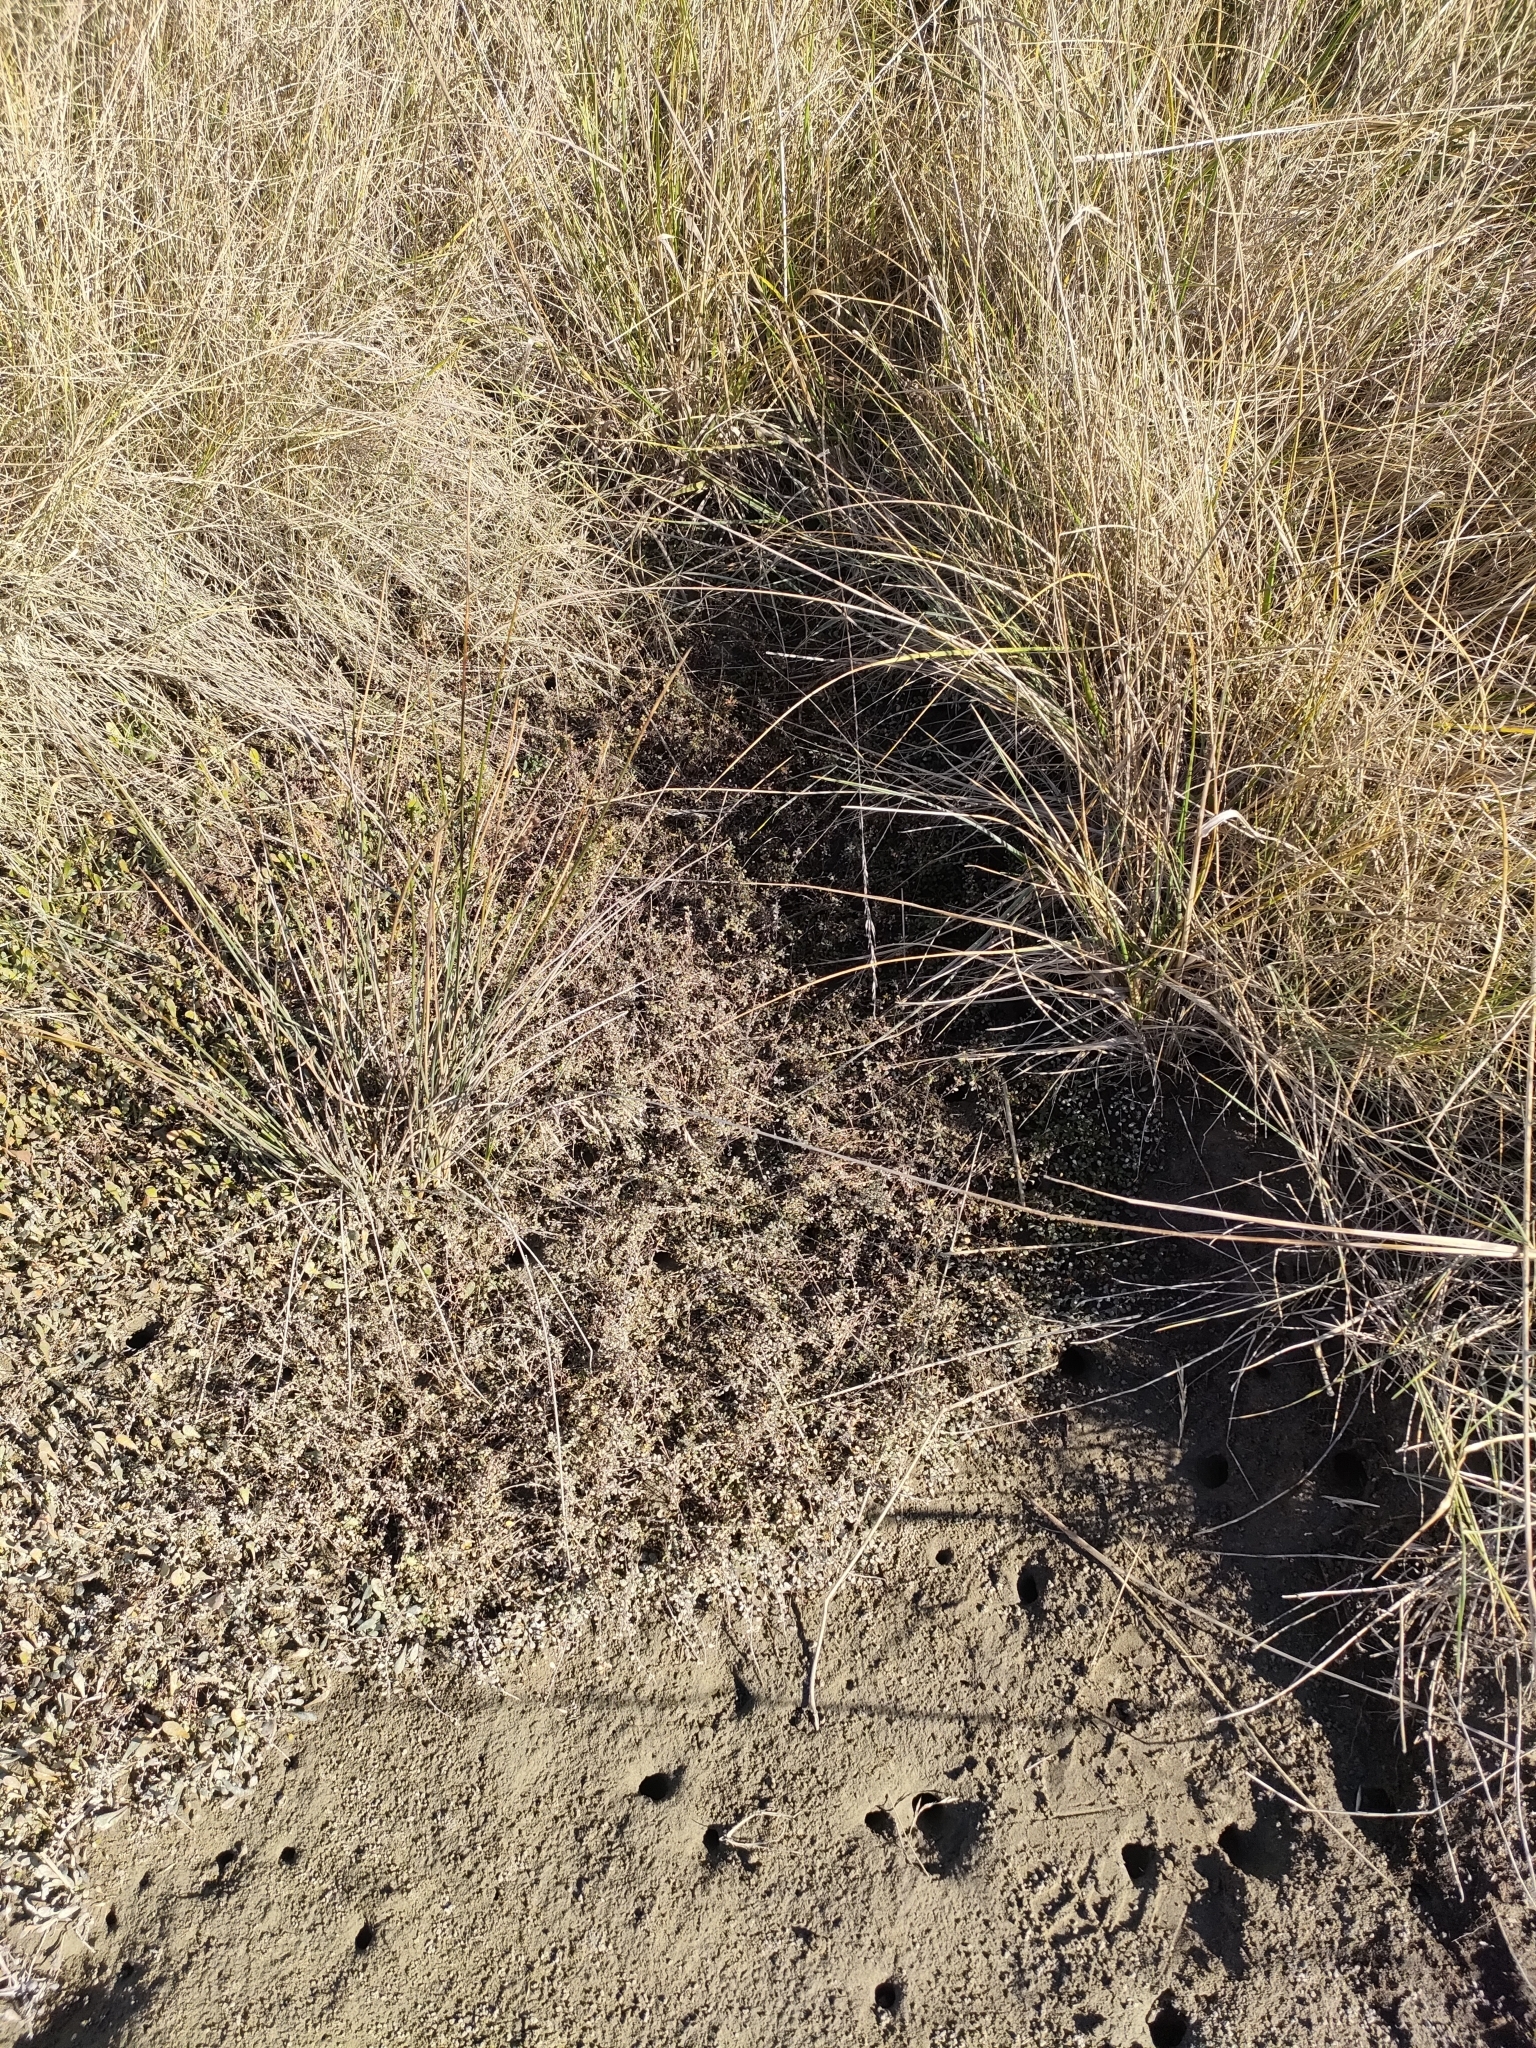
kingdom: Plantae
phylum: Tracheophyta
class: Magnoliopsida
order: Ericales
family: Primulaceae
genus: Samolus
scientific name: Samolus repens
